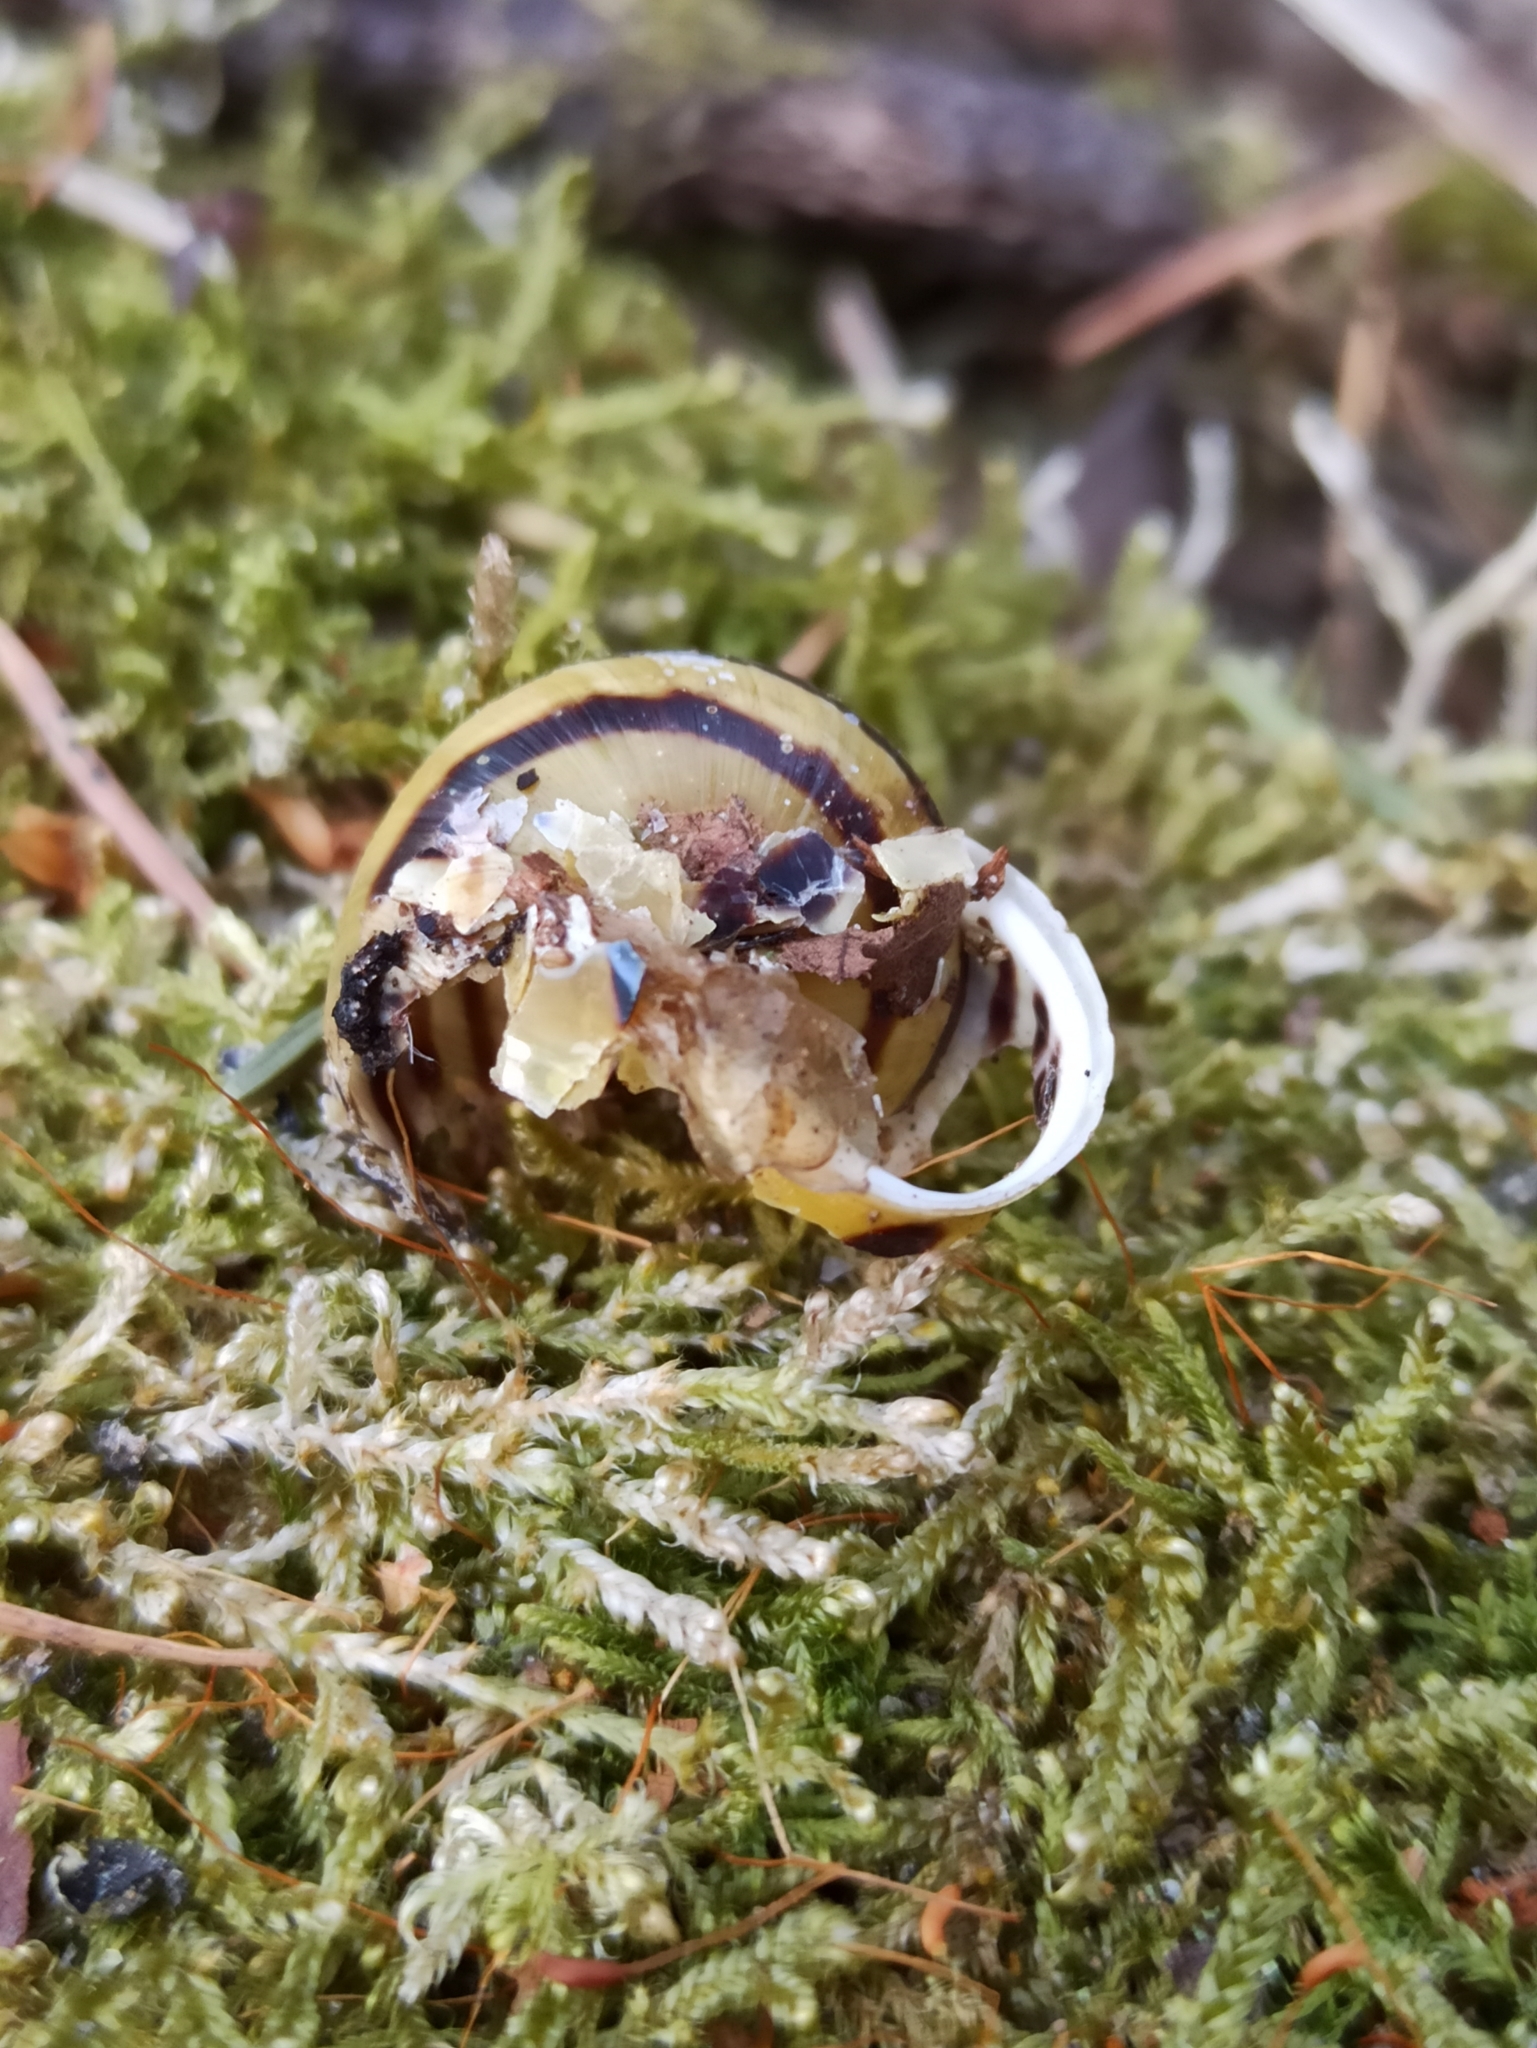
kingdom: Animalia
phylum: Mollusca
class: Gastropoda
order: Stylommatophora
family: Helicidae
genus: Cepaea
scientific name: Cepaea hortensis
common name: White-lip gardensnail
